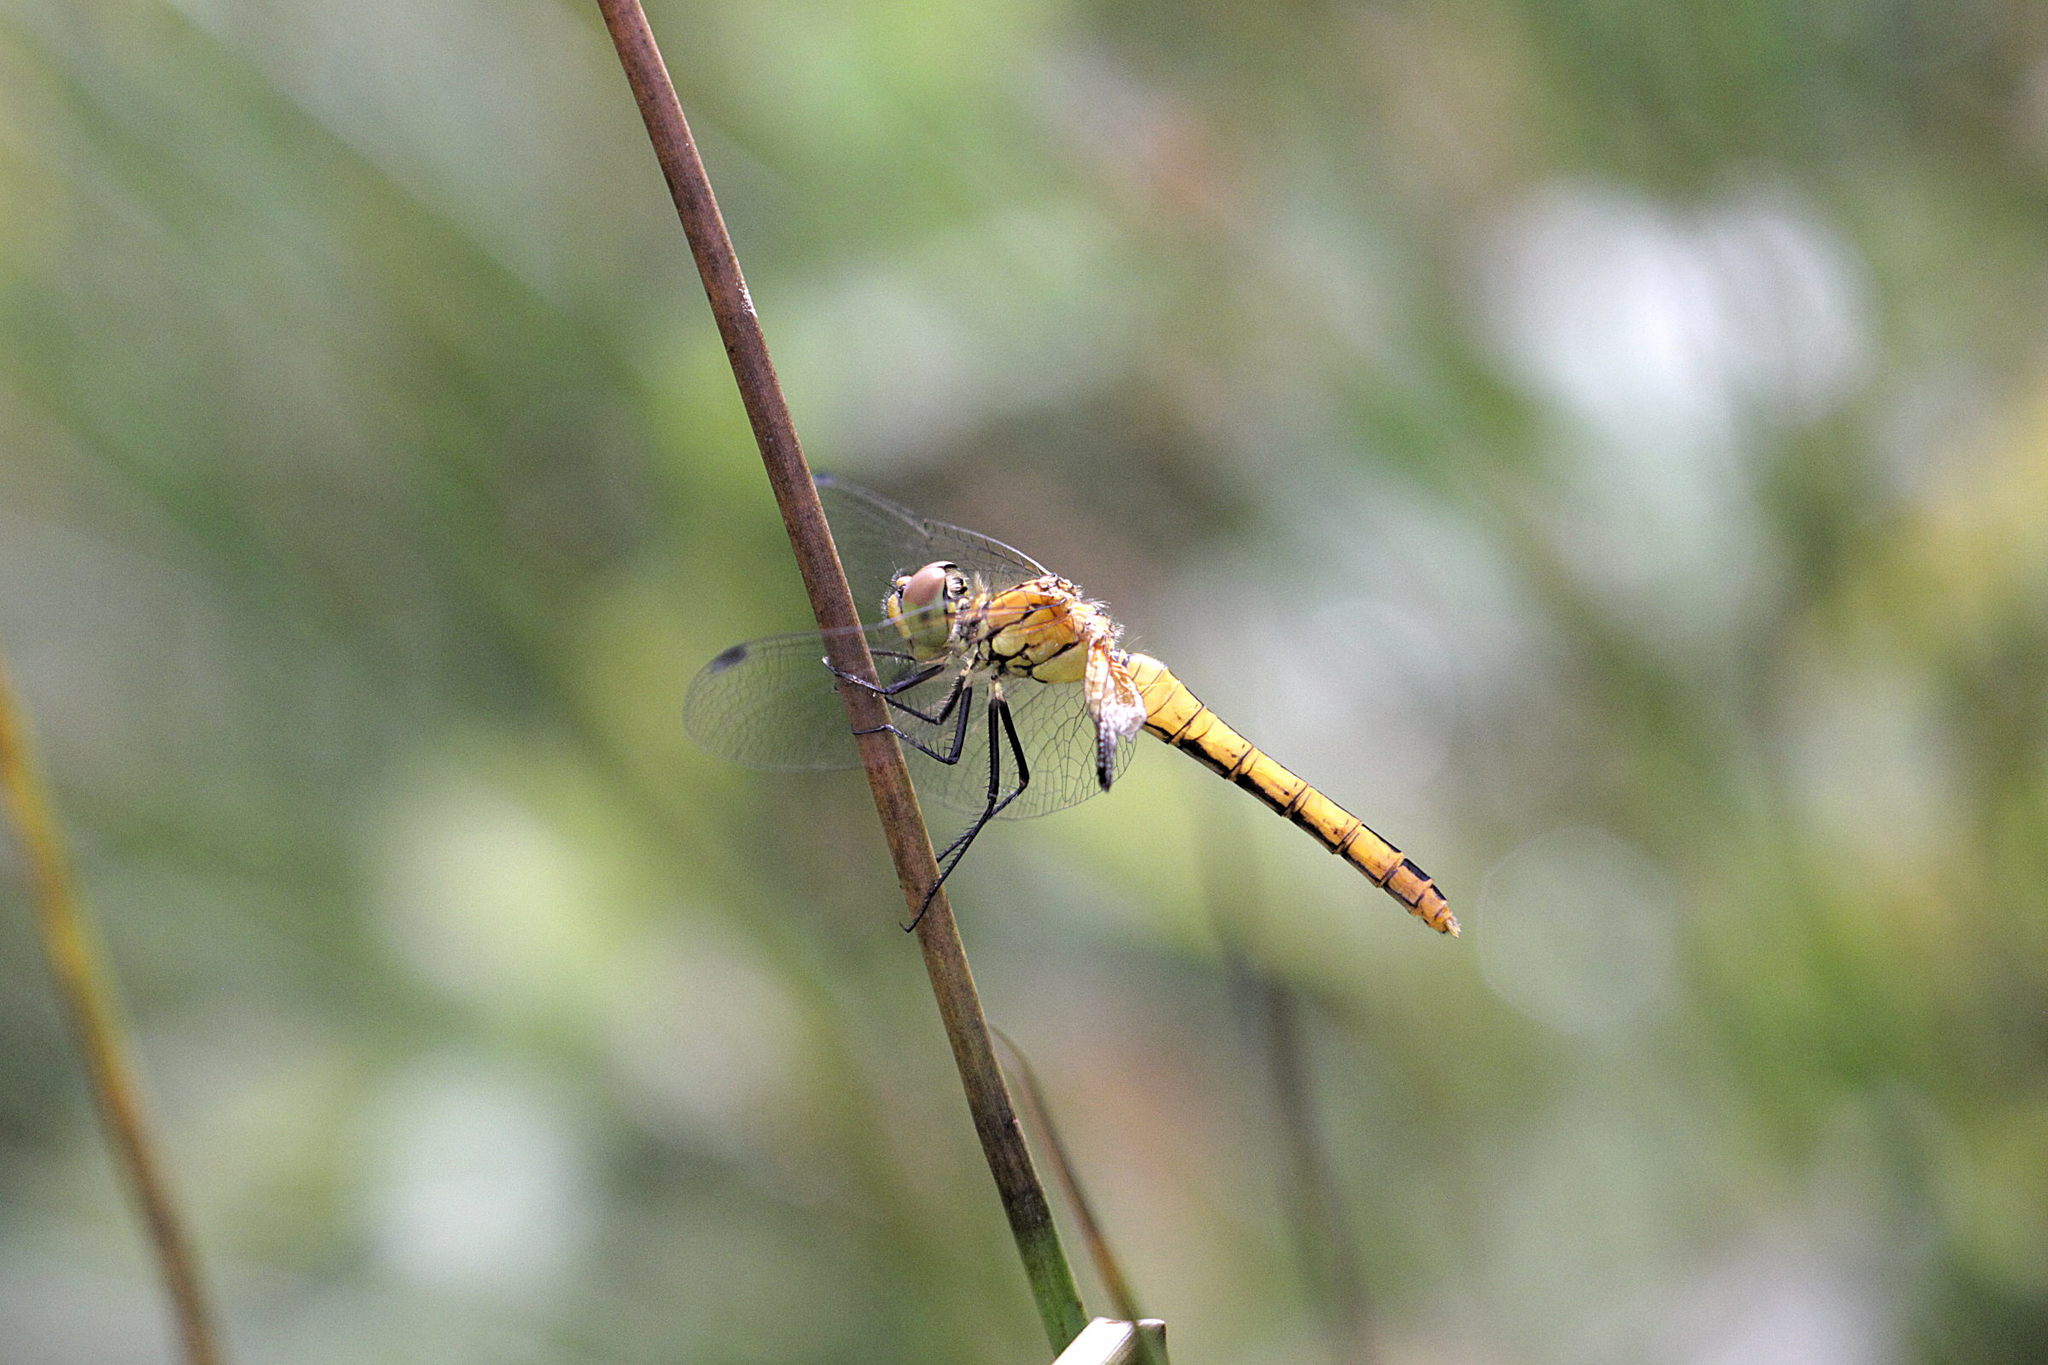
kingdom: Animalia
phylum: Arthropoda
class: Insecta
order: Odonata
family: Libellulidae
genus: Sympetrum
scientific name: Sympetrum sanguineum
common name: Ruddy darter
